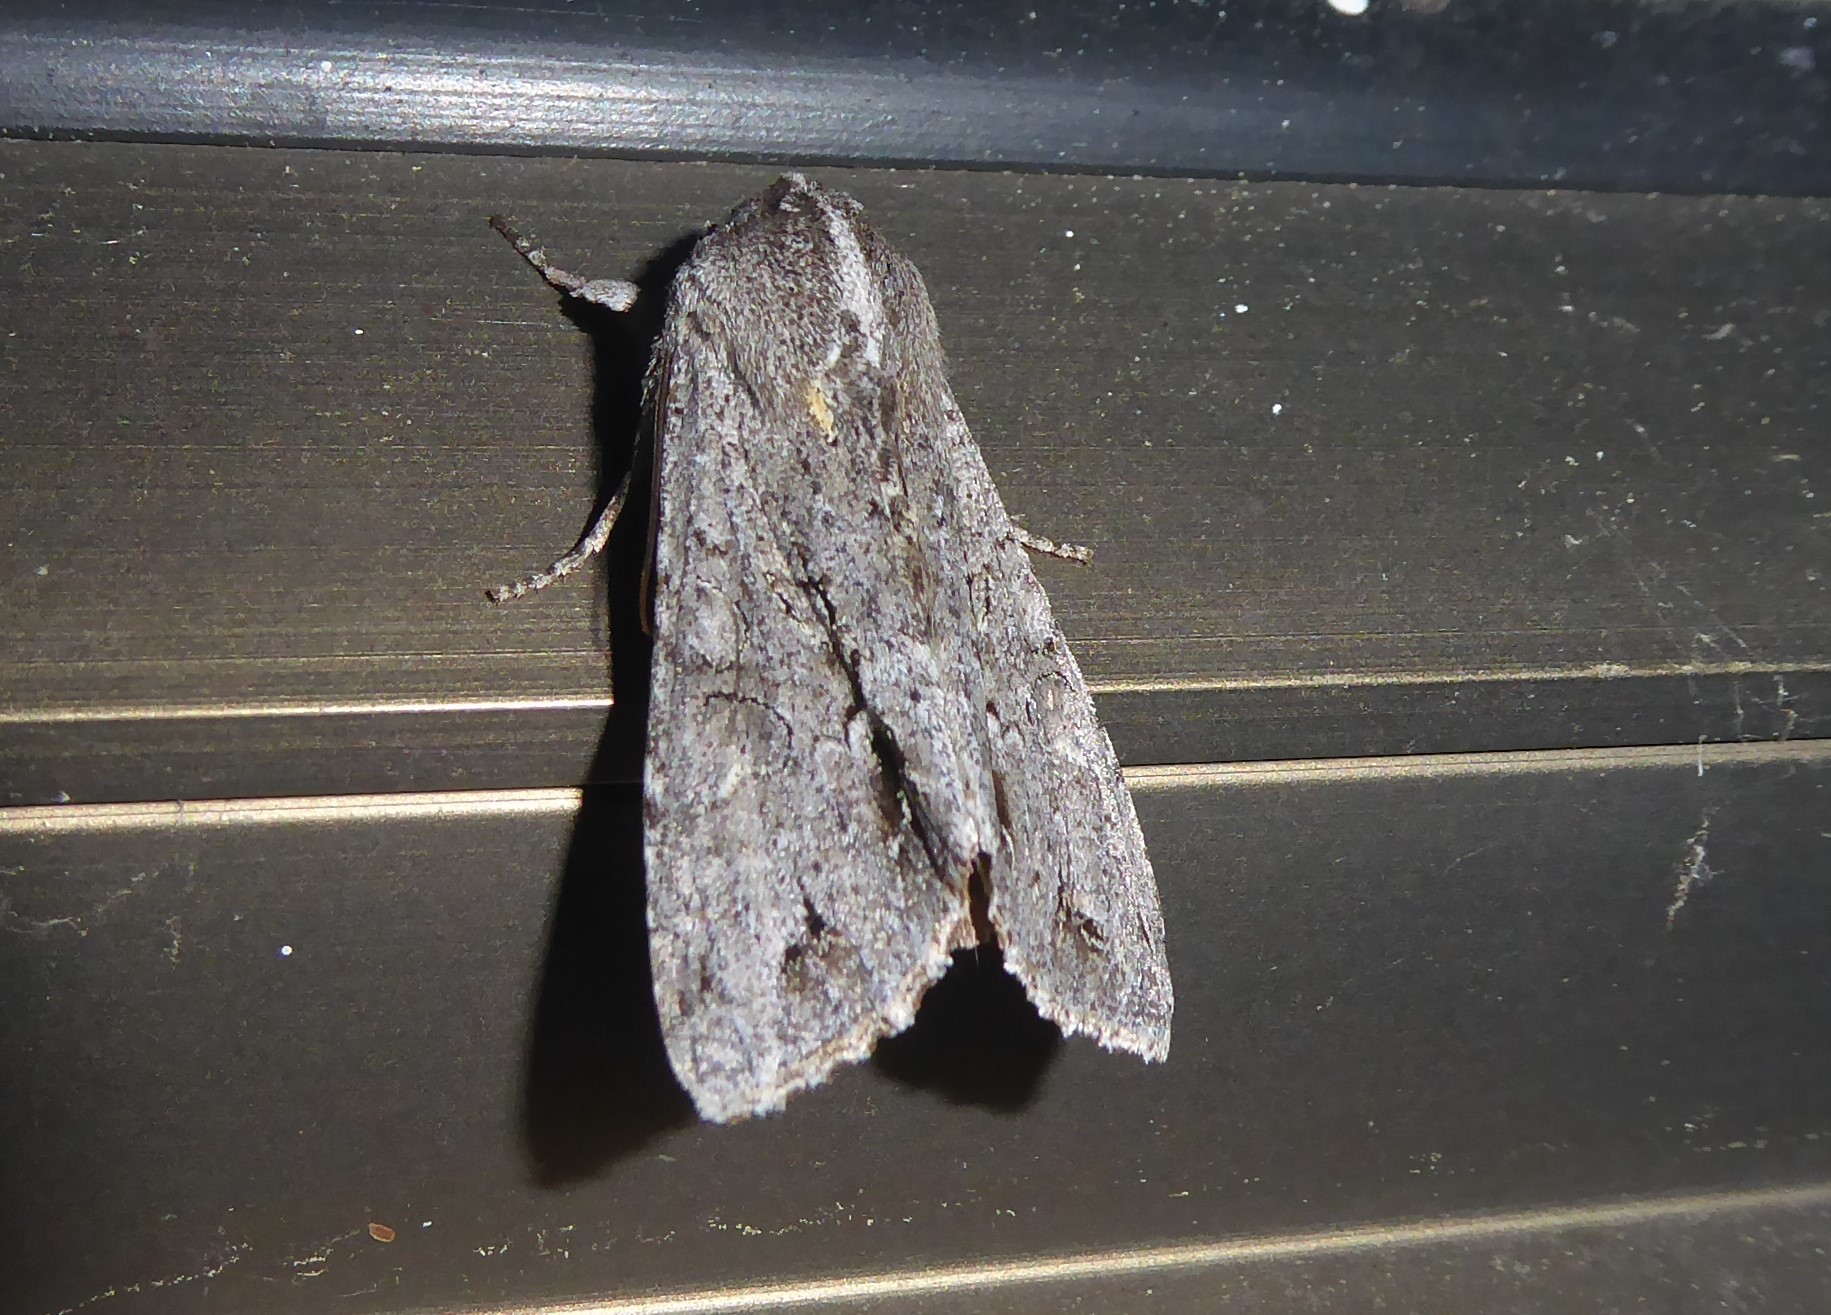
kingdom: Animalia
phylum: Arthropoda
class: Insecta
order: Lepidoptera
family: Noctuidae
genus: Ichneutica
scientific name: Ichneutica
